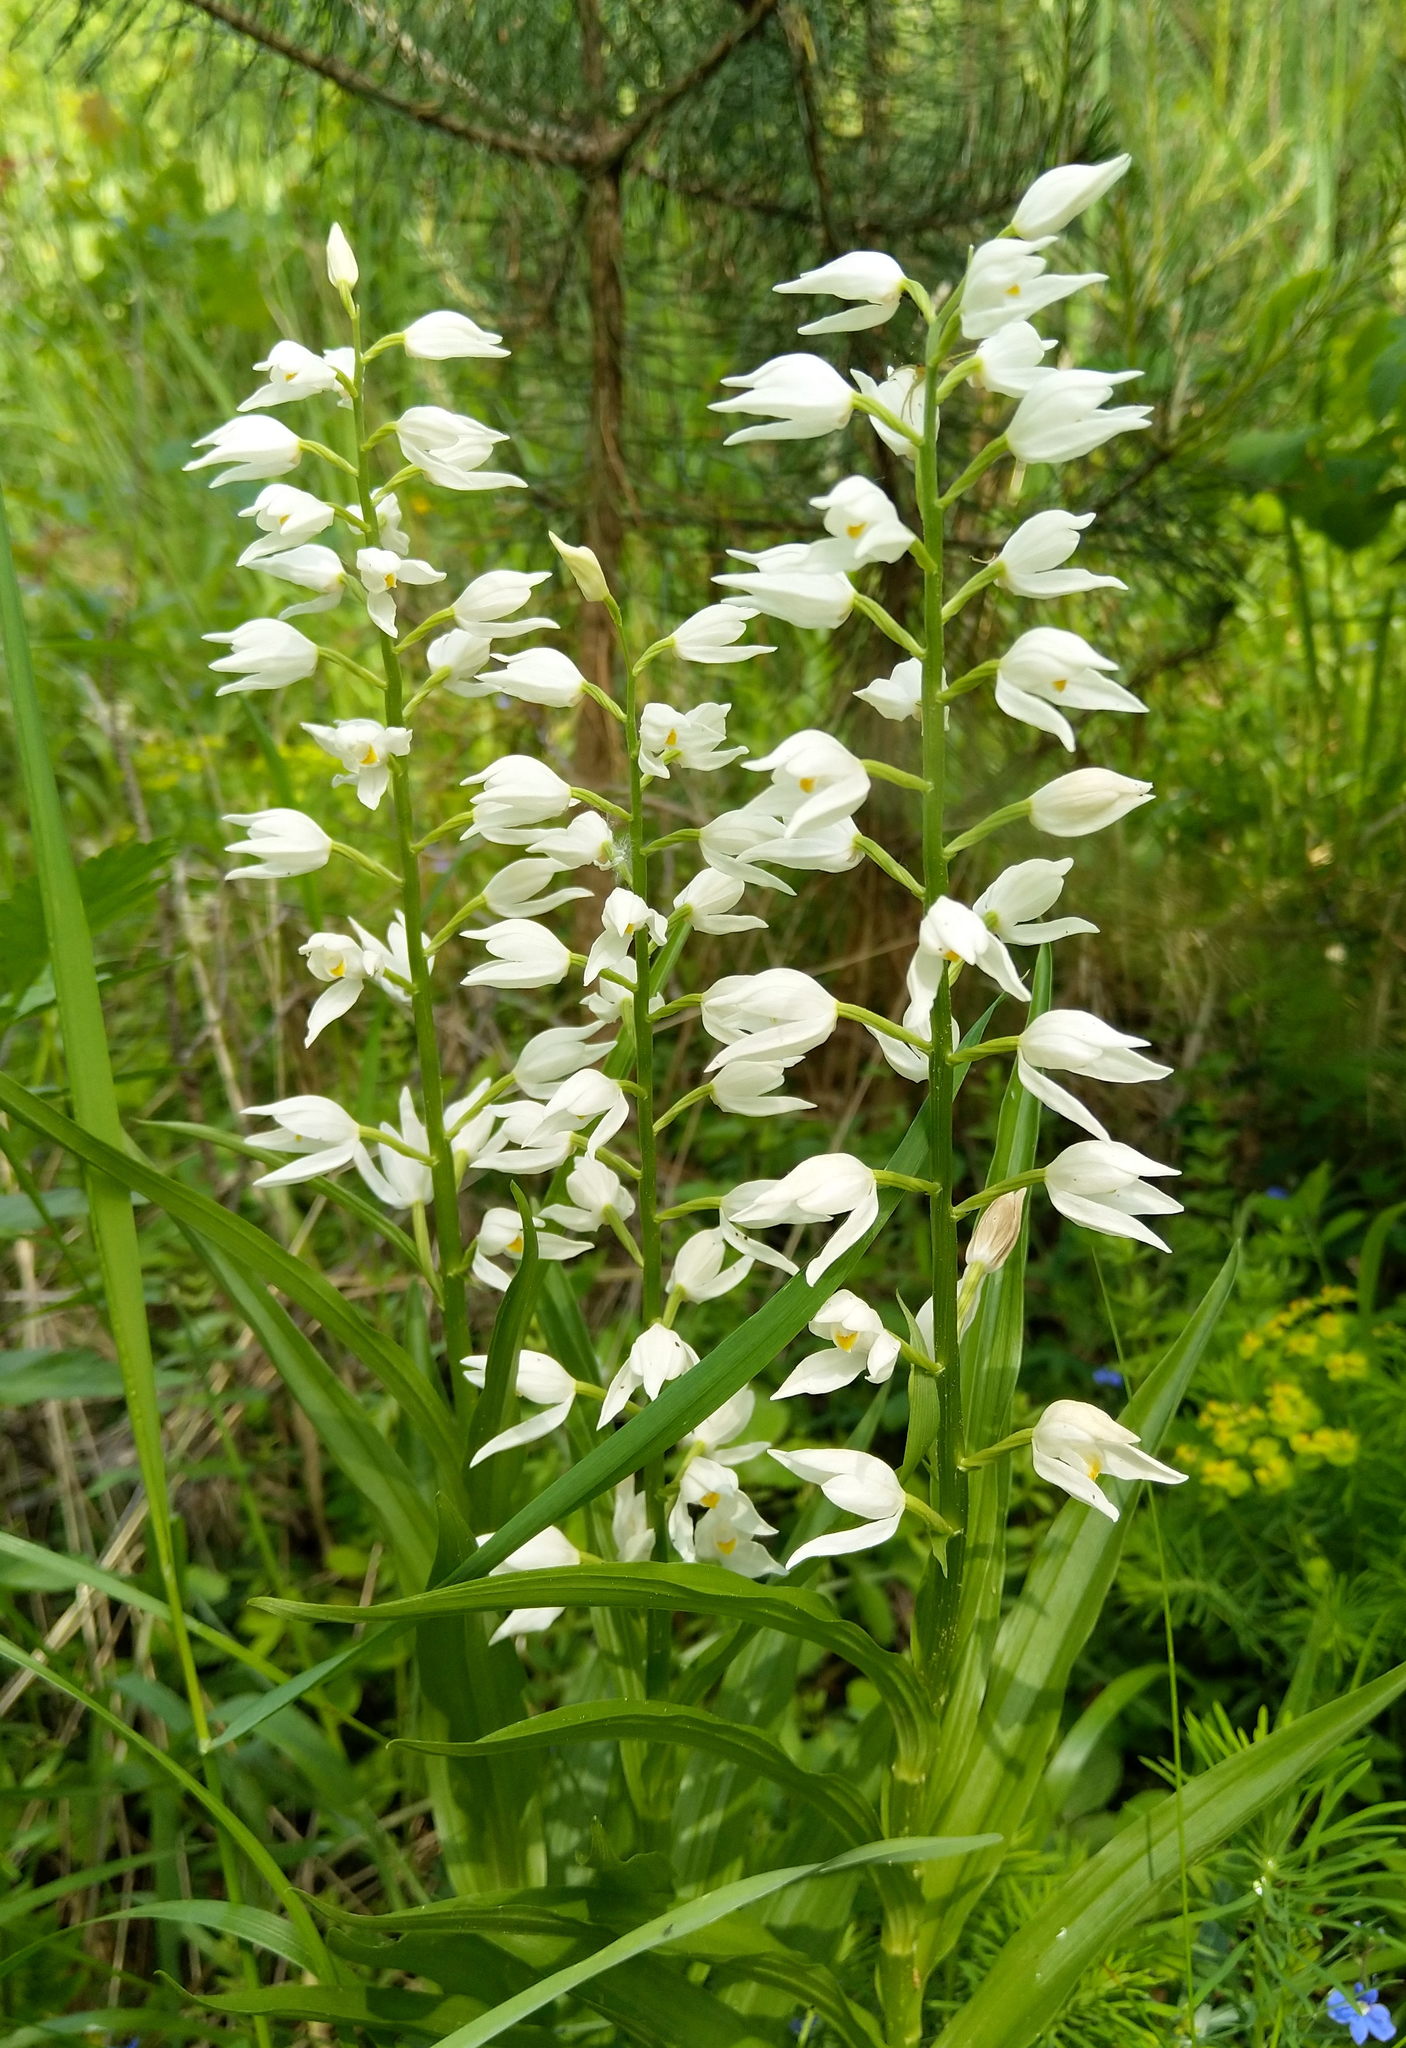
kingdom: Plantae
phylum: Tracheophyta
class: Liliopsida
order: Asparagales
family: Orchidaceae
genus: Cephalanthera
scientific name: Cephalanthera longifolia
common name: Narrow-leaved helleborine
